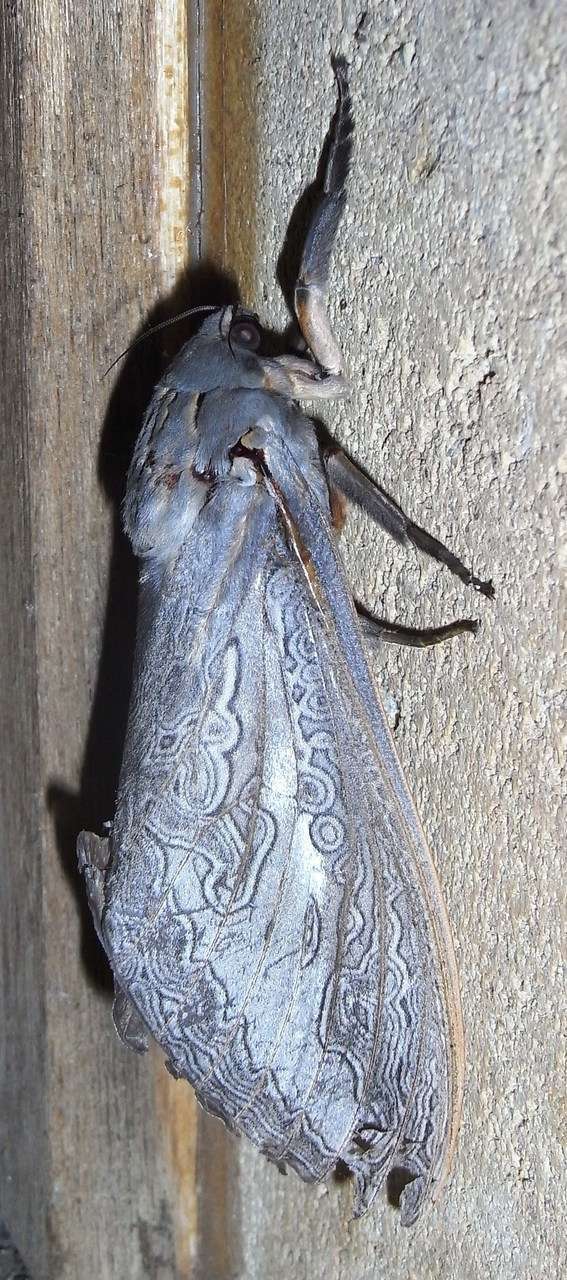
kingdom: Animalia
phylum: Arthropoda
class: Insecta
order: Lepidoptera
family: Hepialidae
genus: Abantiades
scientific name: Abantiades labyrinthicus
